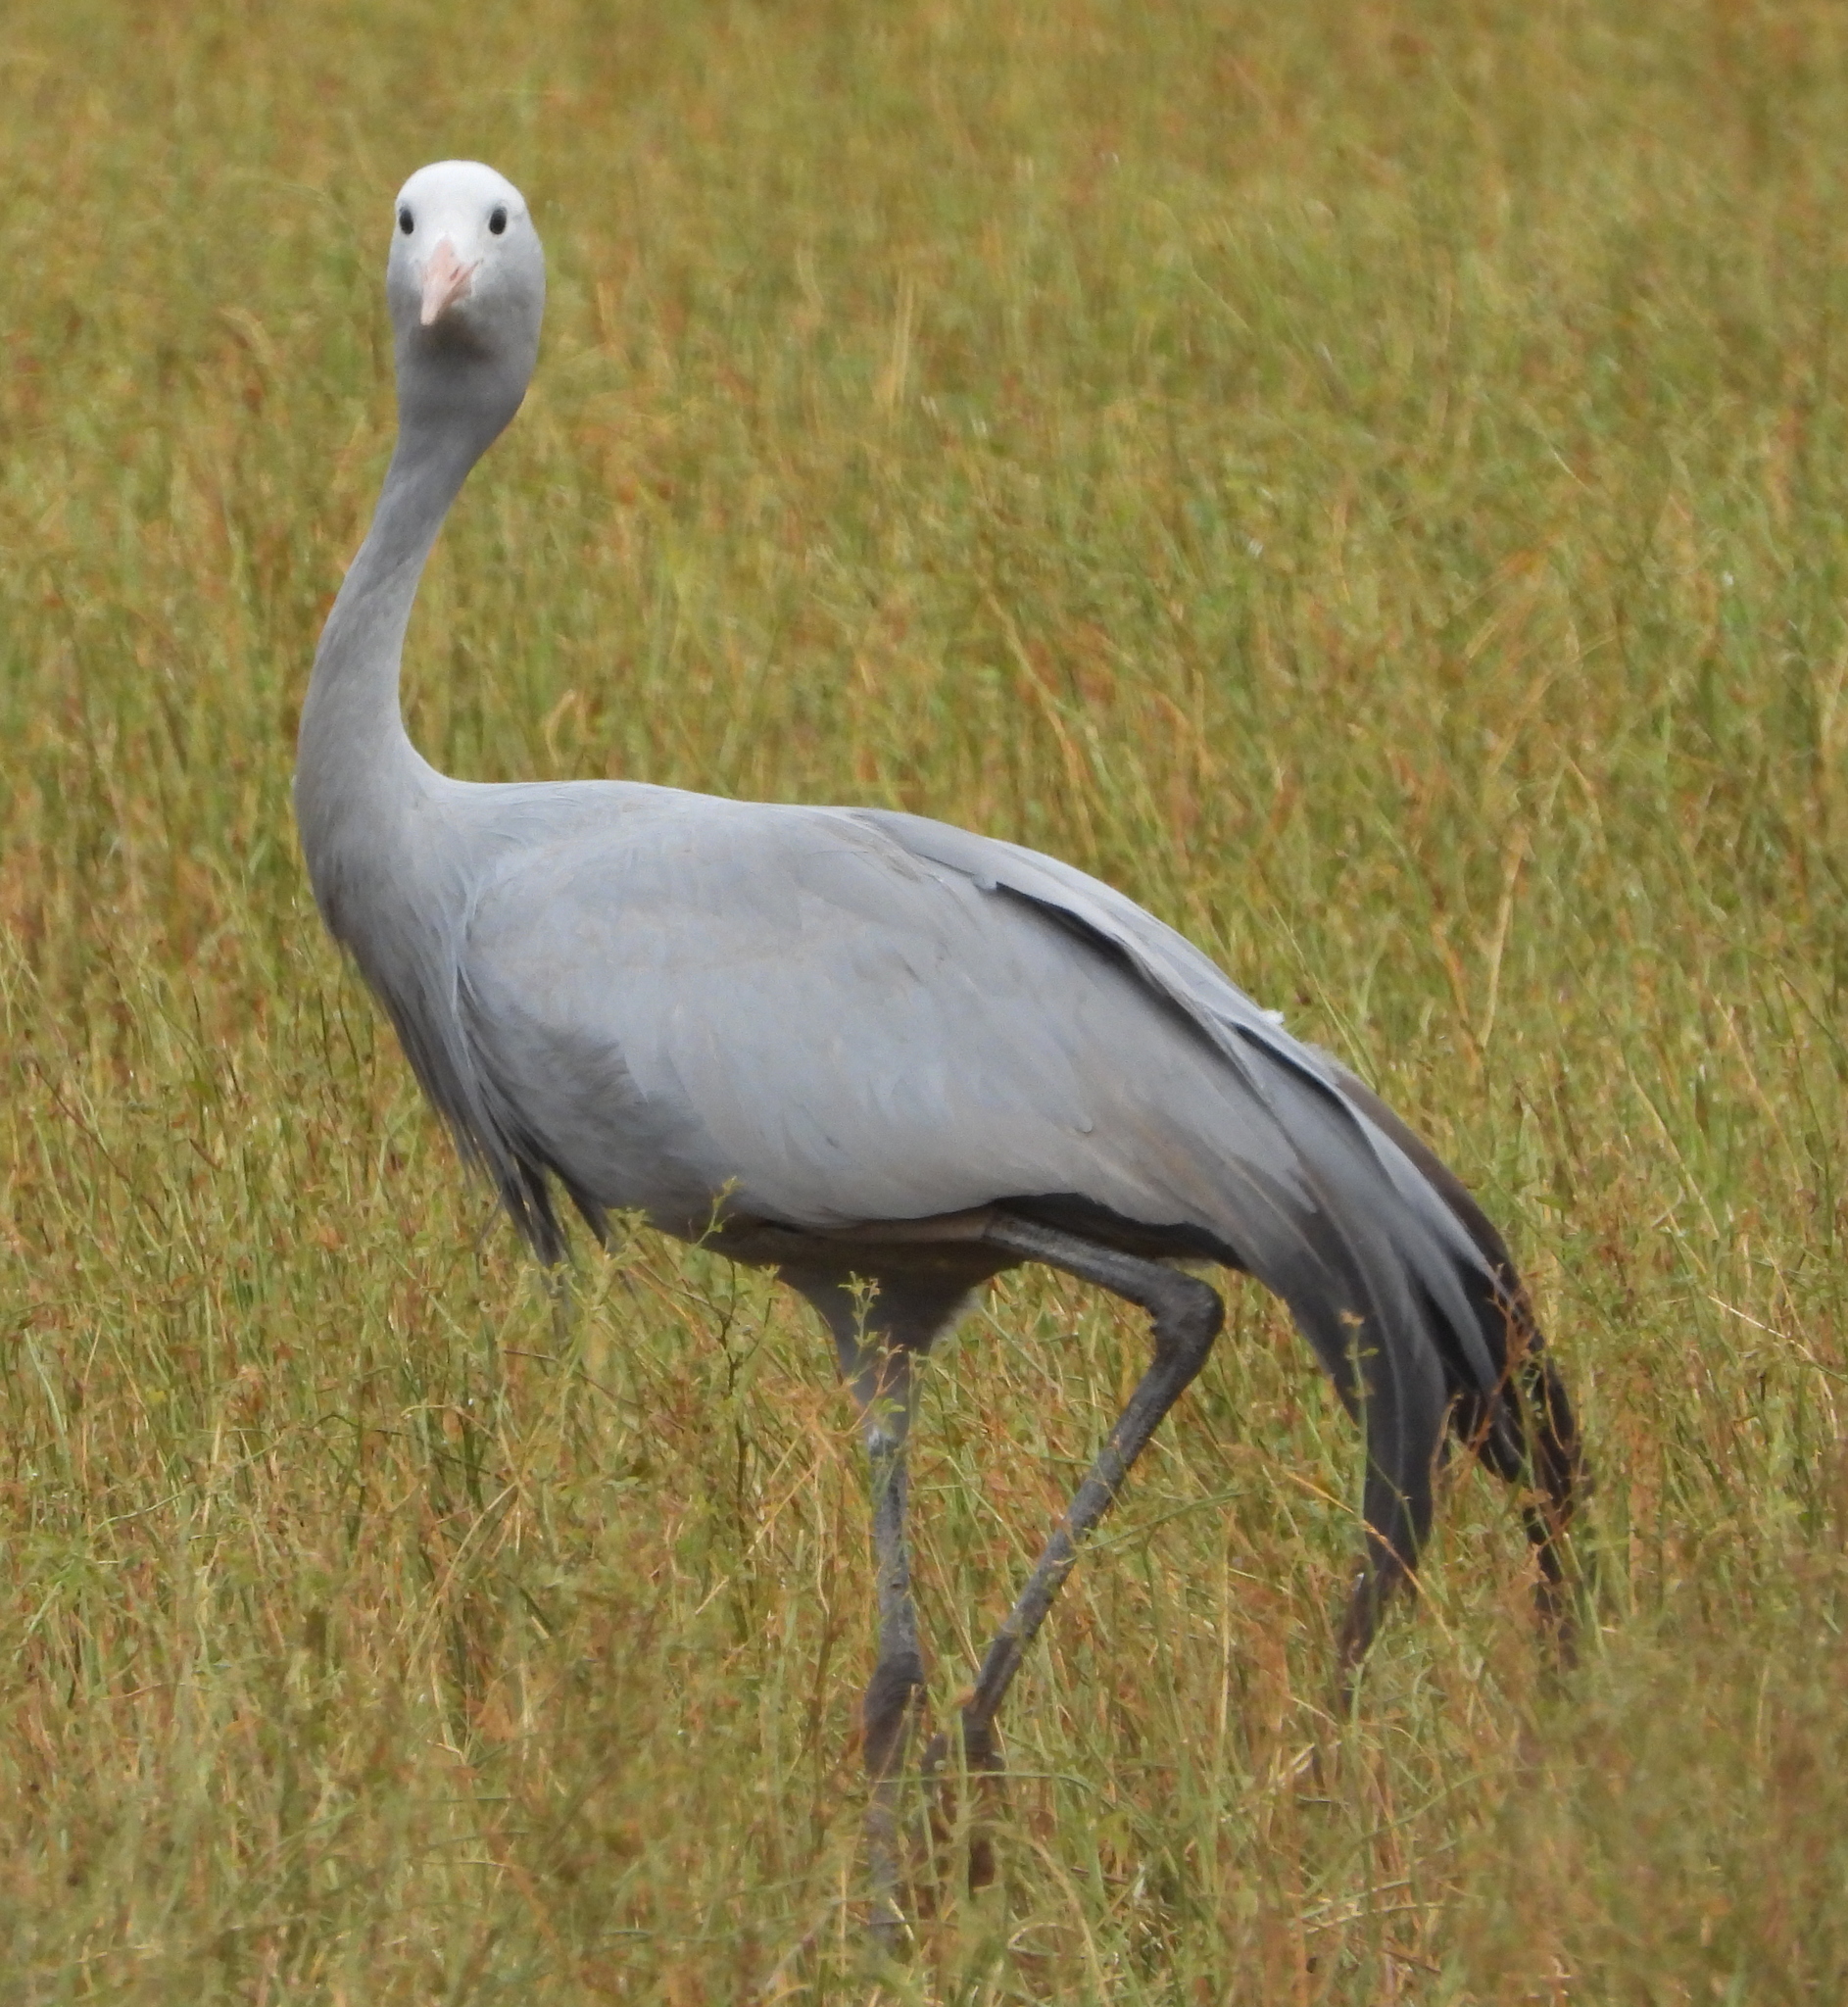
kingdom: Animalia
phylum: Chordata
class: Aves
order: Gruiformes
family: Gruidae
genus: Anthropoides
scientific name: Anthropoides paradiseus
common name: Blue crane
